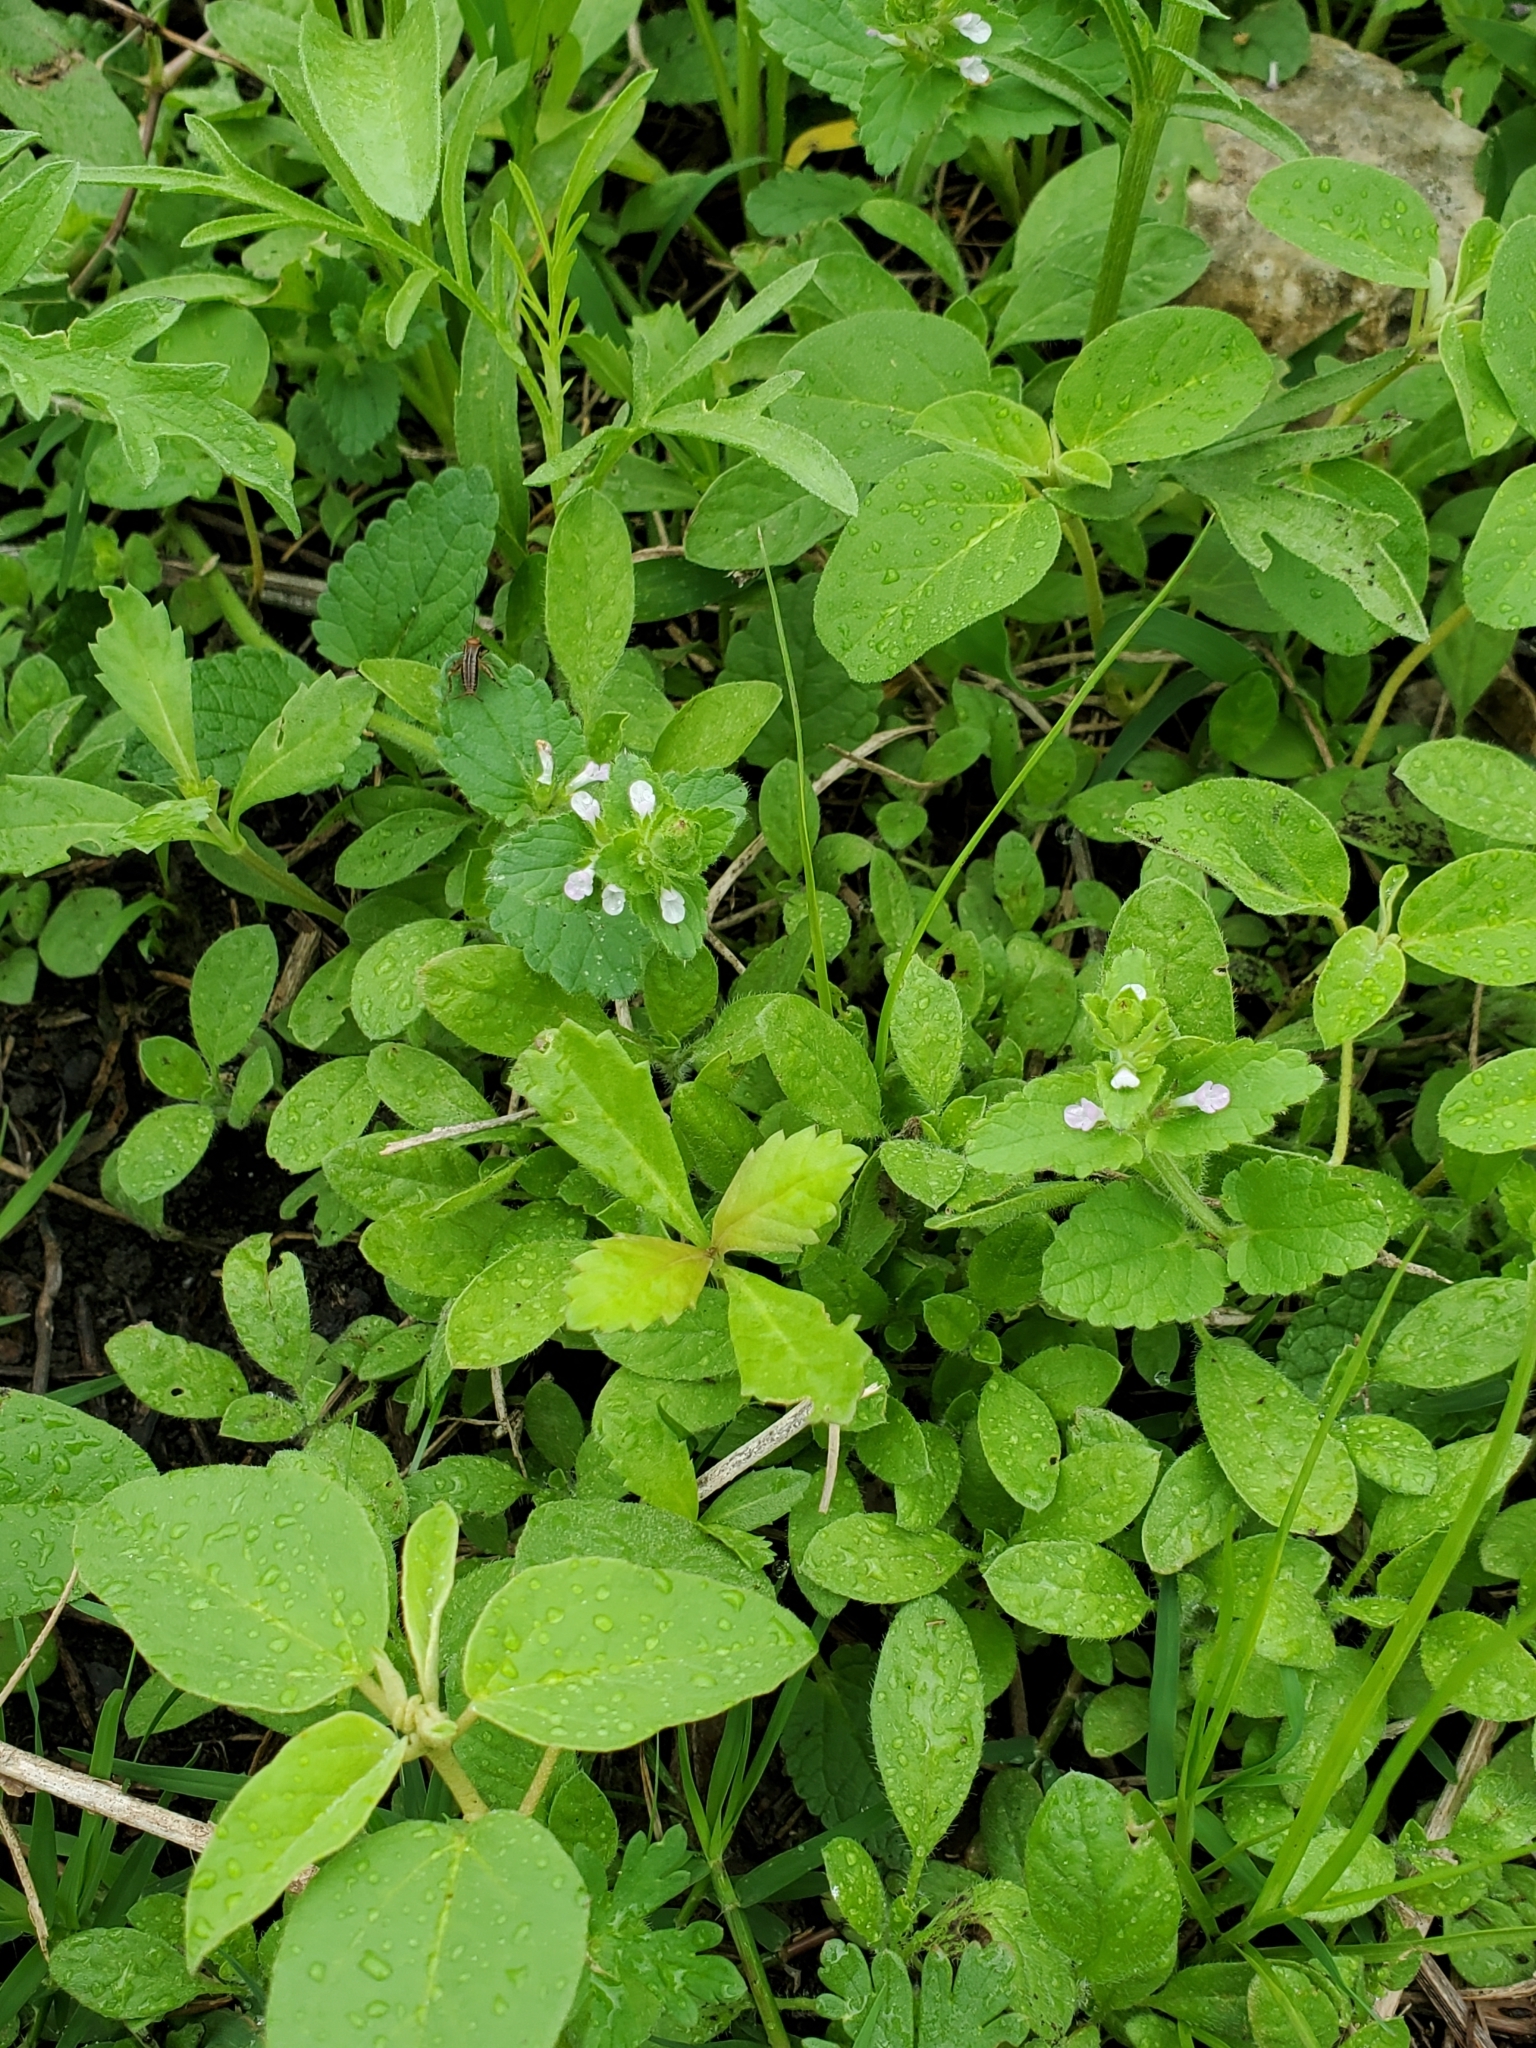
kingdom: Plantae
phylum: Tracheophyta
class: Magnoliopsida
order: Lamiales
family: Lamiaceae
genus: Stachys
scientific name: Stachys
